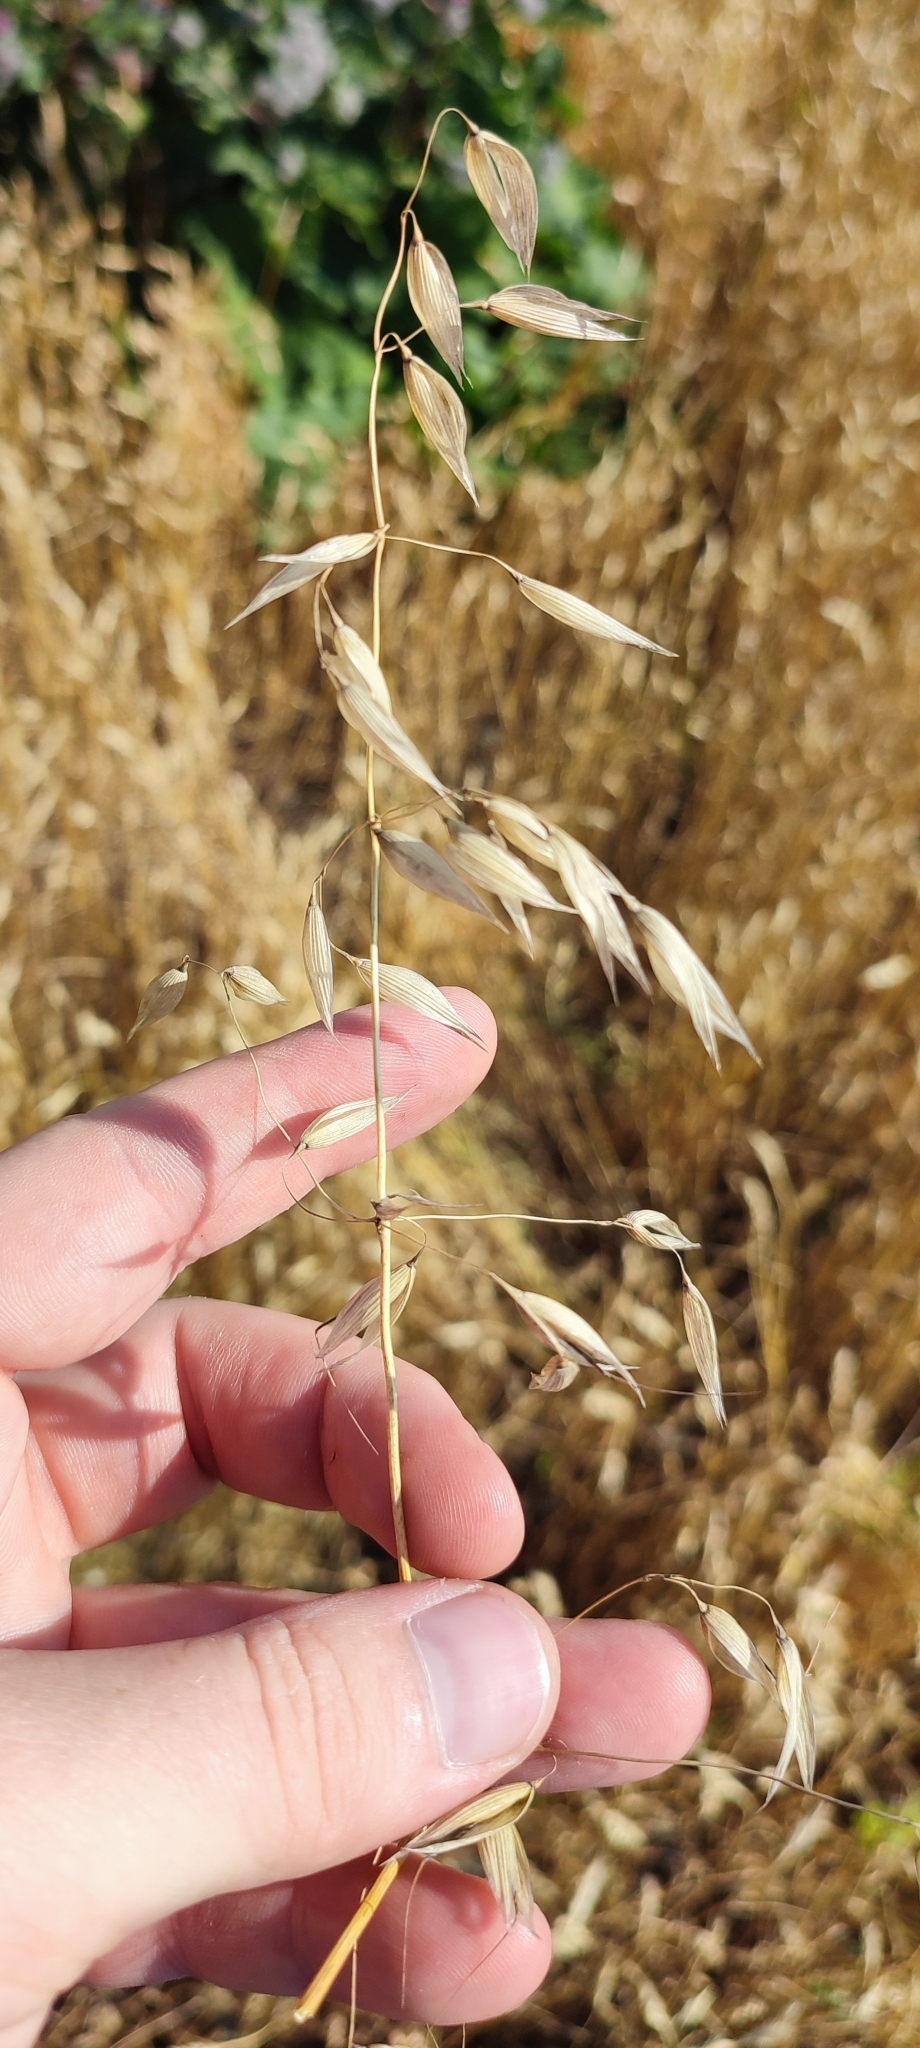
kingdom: Plantae
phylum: Tracheophyta
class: Liliopsida
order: Poales
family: Poaceae
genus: Avena
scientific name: Avena fatua
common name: Wild oat
